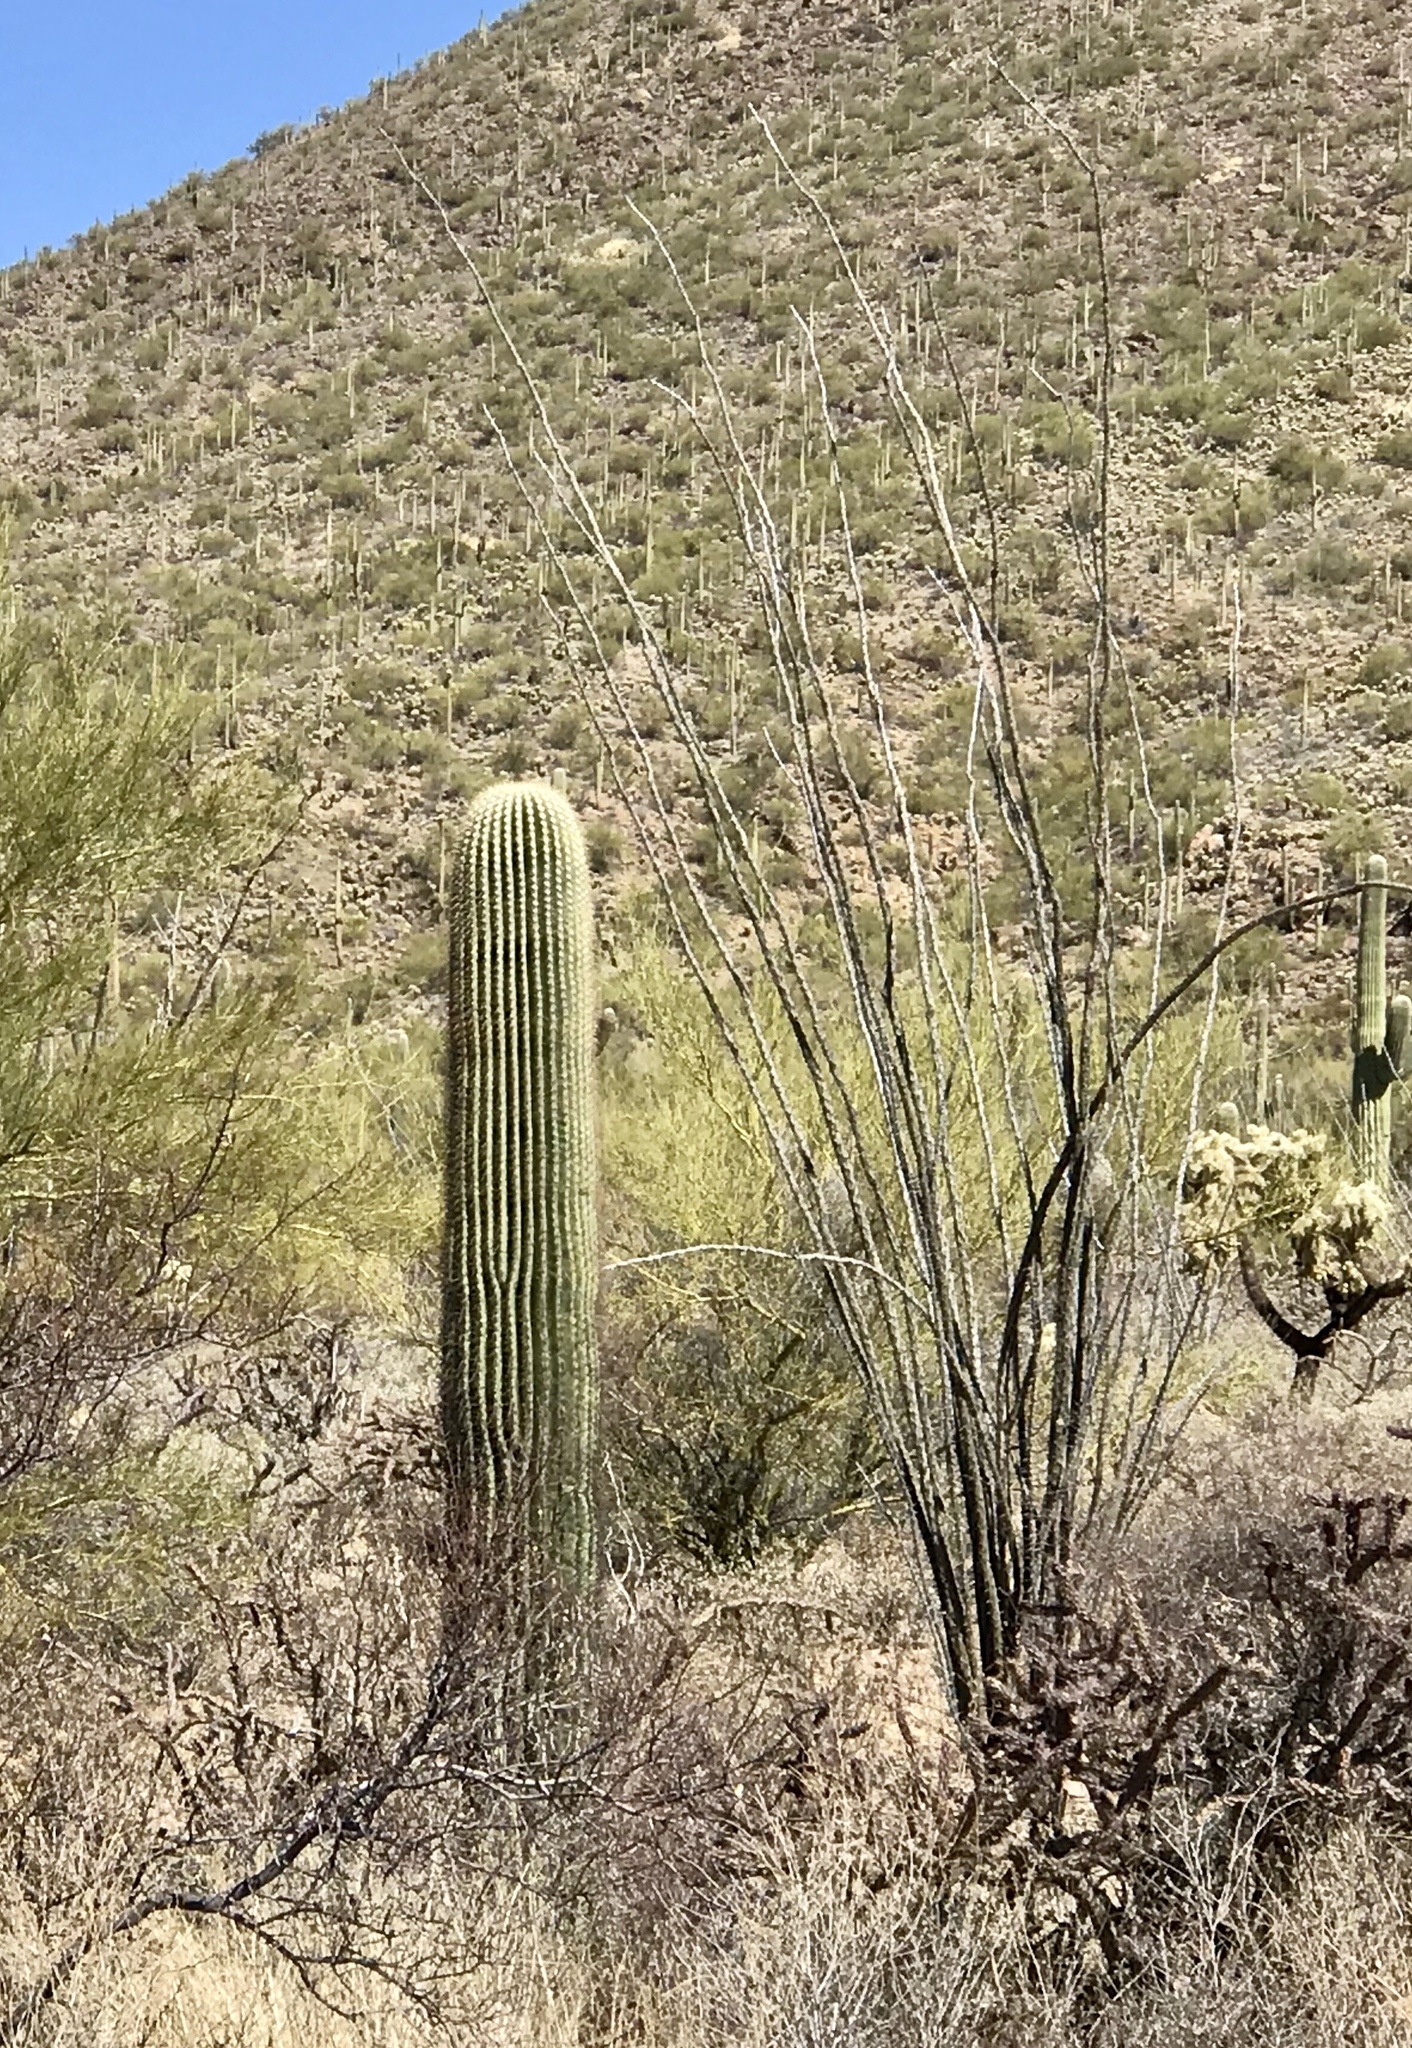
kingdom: Plantae
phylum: Tracheophyta
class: Magnoliopsida
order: Ericales
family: Fouquieriaceae
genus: Fouquieria
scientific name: Fouquieria splendens
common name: Vine-cactus
